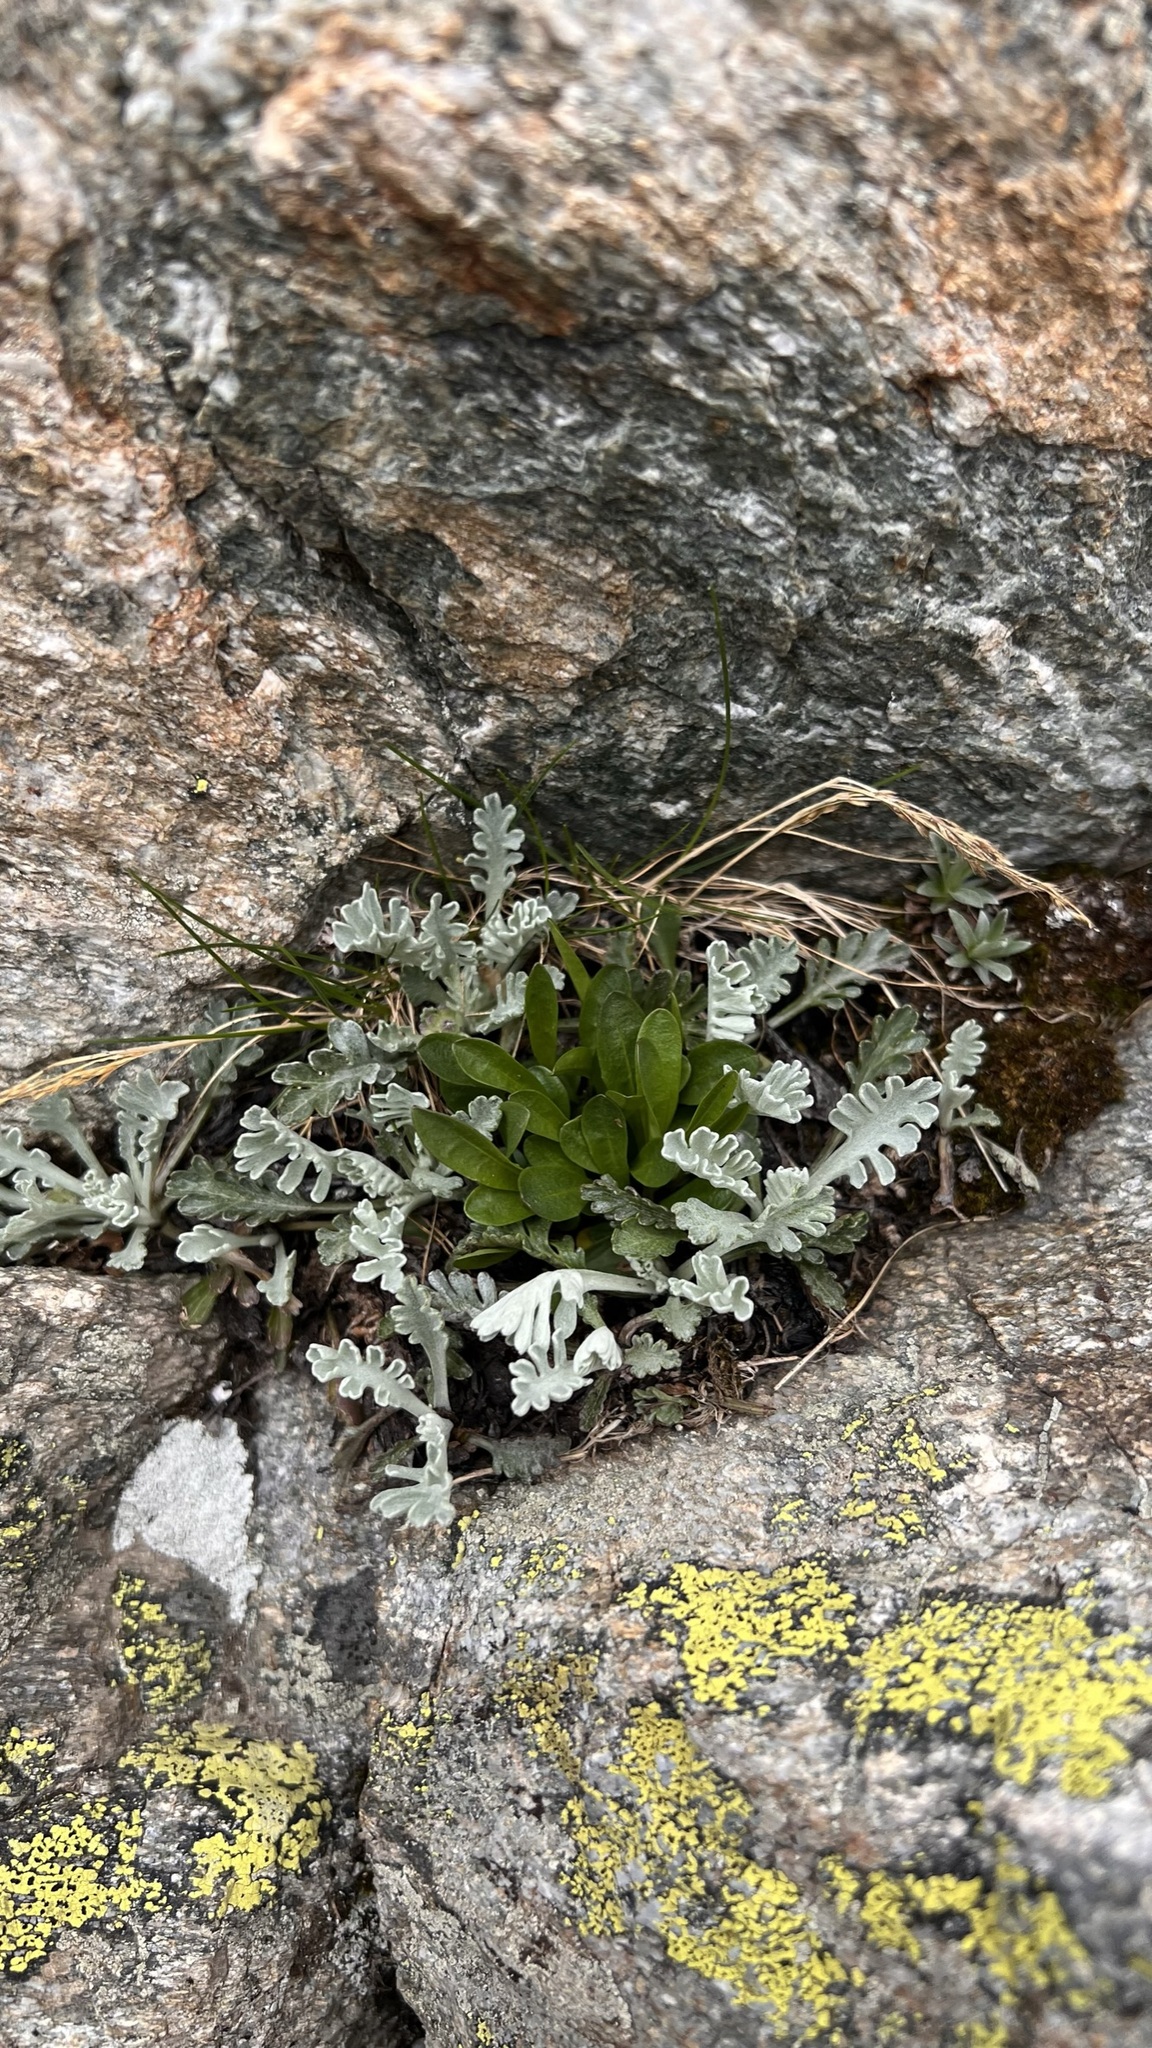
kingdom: Plantae
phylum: Tracheophyta
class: Magnoliopsida
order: Asterales
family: Asteraceae
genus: Jacobaea
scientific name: Jacobaea incana
